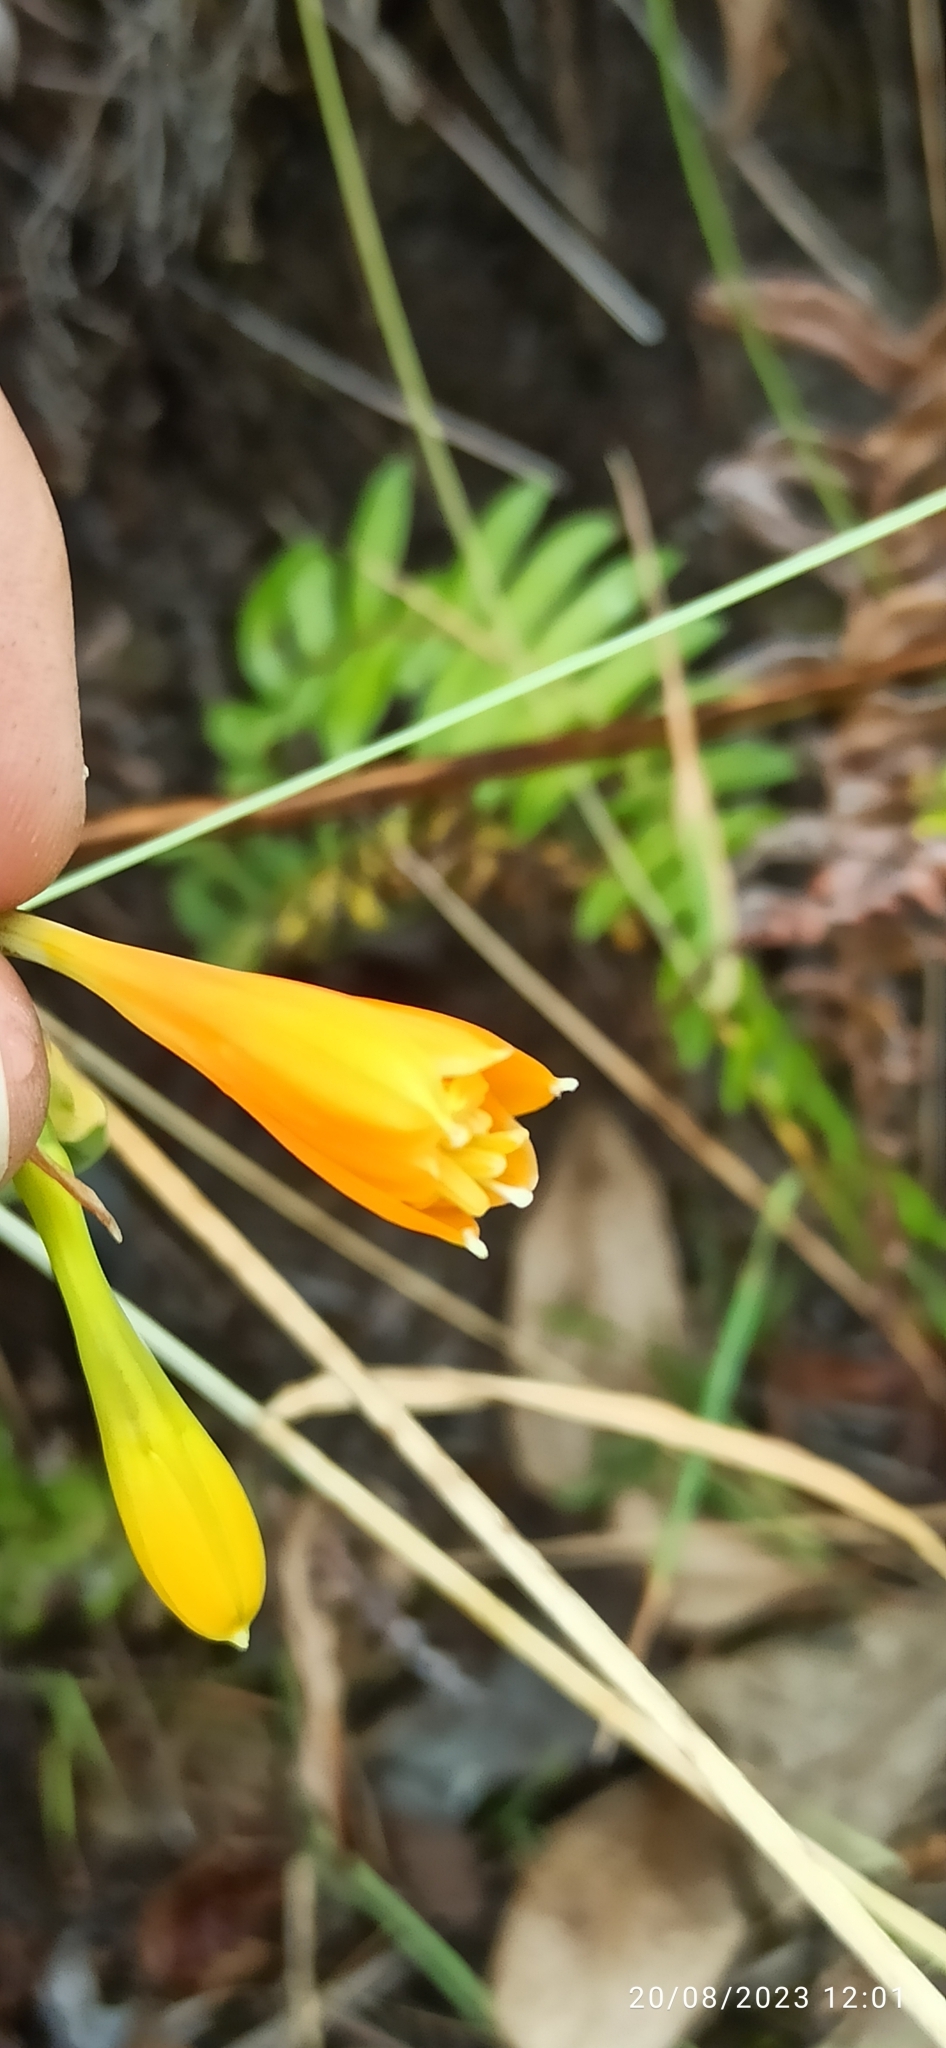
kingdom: Plantae
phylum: Tracheophyta
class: Liliopsida
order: Asparagales
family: Amaryllidaceae
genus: Stenomesson
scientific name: Stenomesson aurantiacum
